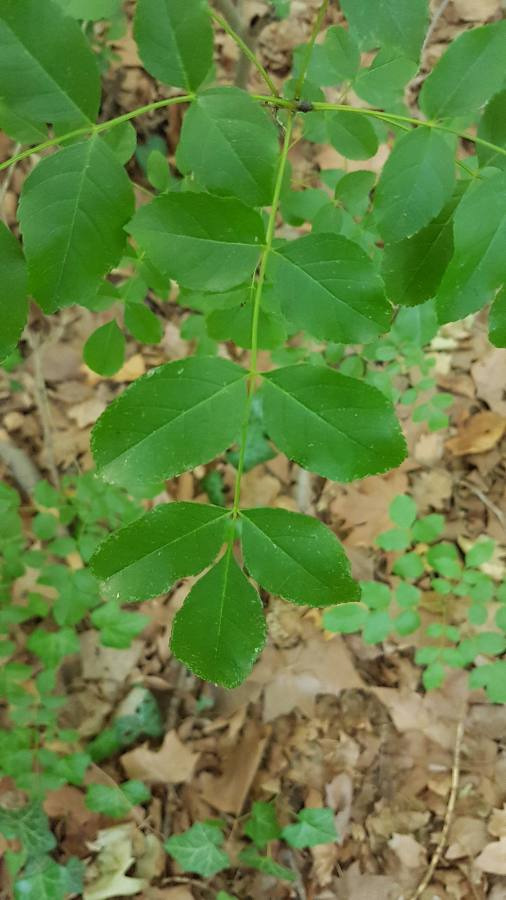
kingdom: Plantae
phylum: Tracheophyta
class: Magnoliopsida
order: Lamiales
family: Oleaceae
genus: Fraxinus
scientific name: Fraxinus ornus
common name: Manna ash
